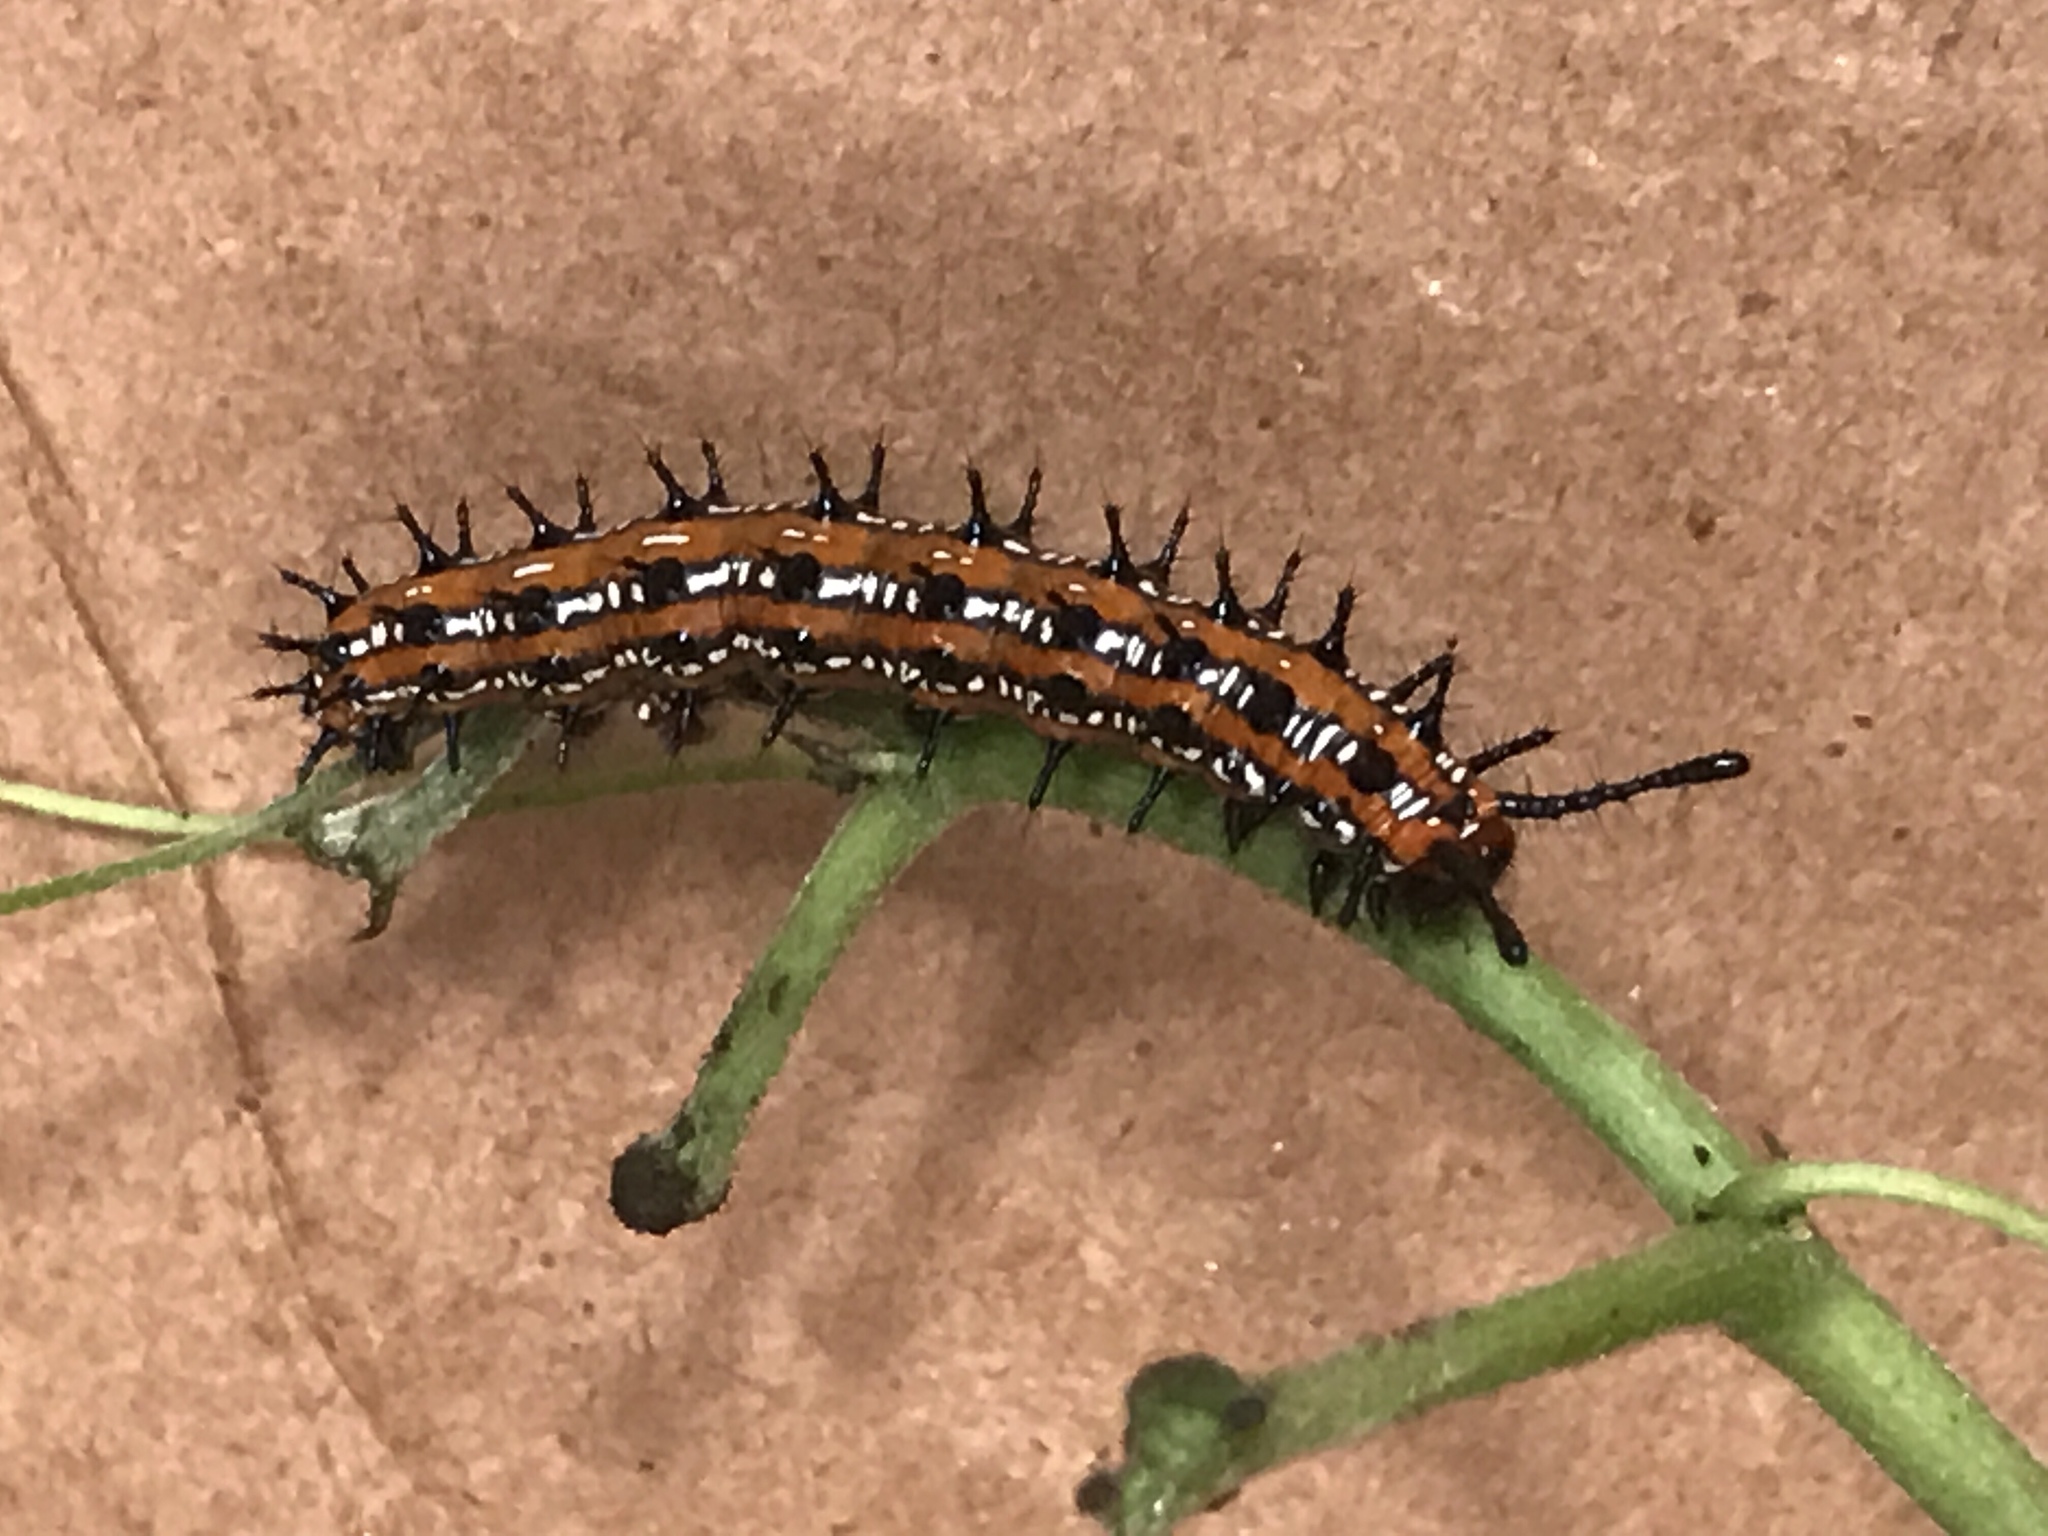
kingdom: Animalia
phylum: Arthropoda
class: Insecta
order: Lepidoptera
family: Nymphalidae
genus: Euptoieta
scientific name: Euptoieta claudia
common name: Variegated fritillary
